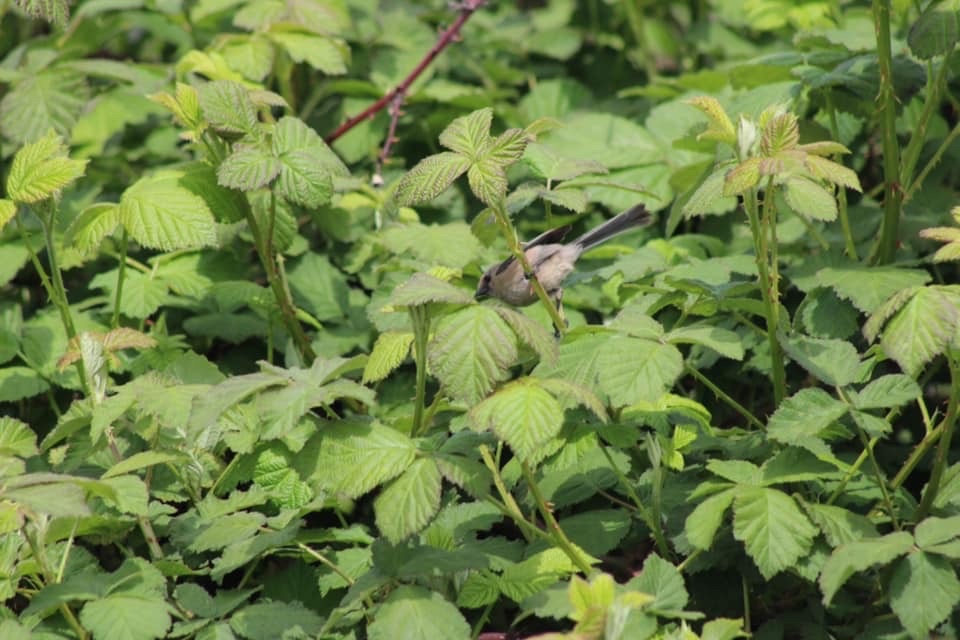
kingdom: Animalia
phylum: Chordata
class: Aves
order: Passeriformes
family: Aegithalidae
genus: Psaltriparus
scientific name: Psaltriparus minimus
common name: American bushtit
